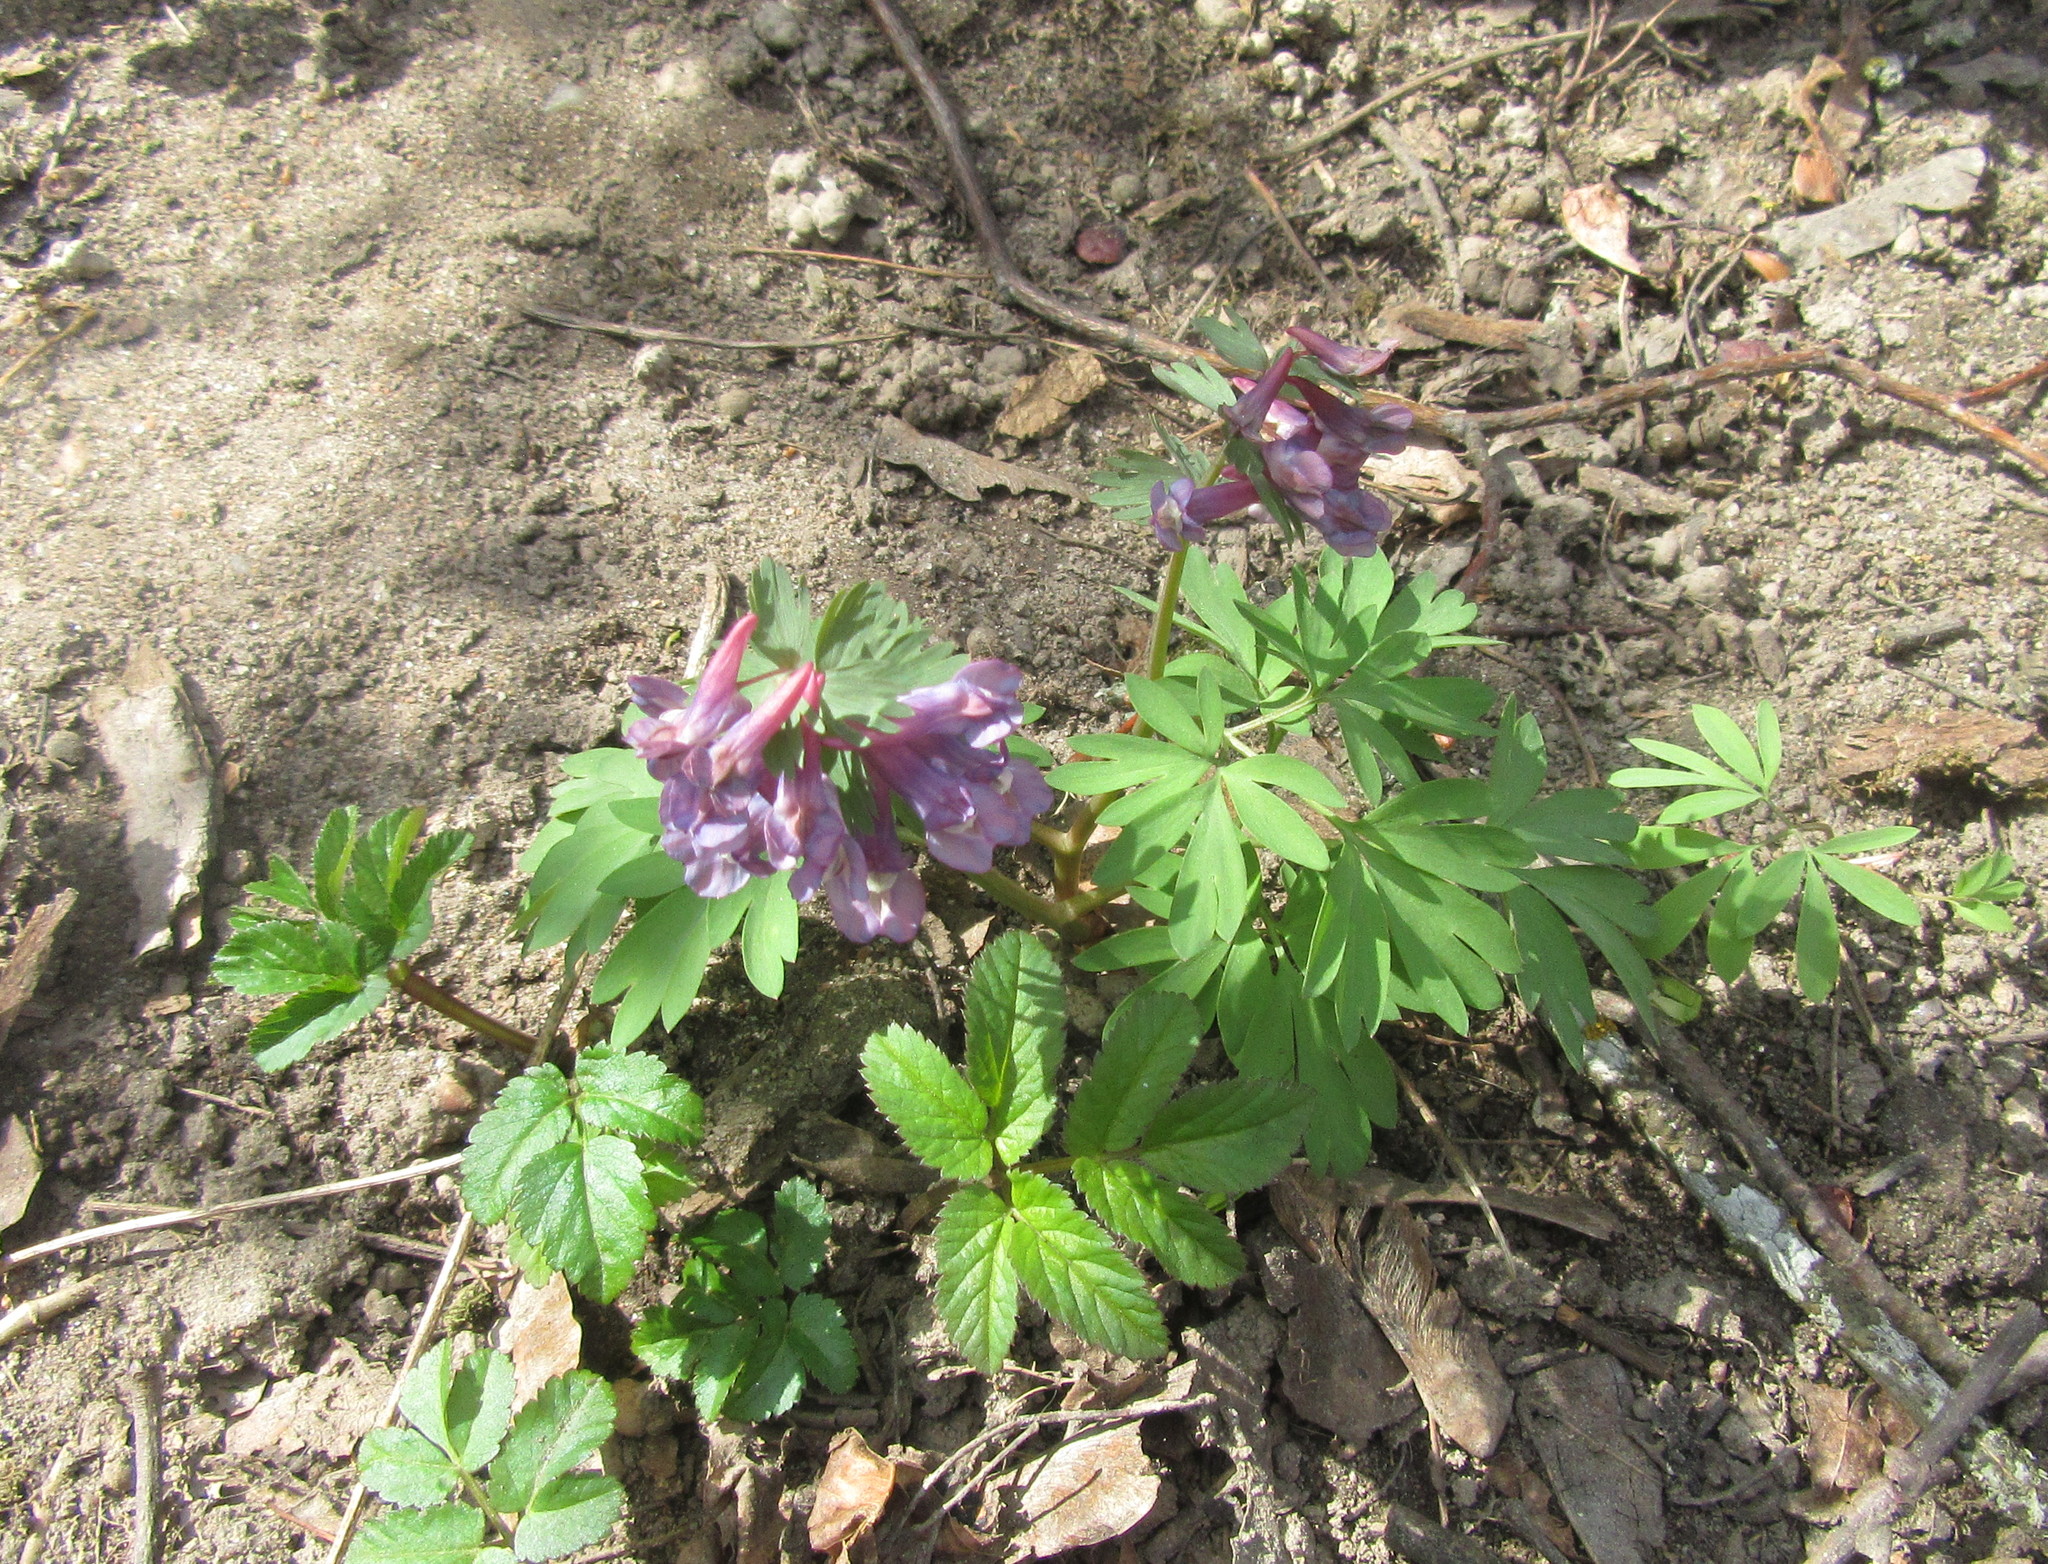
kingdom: Plantae
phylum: Tracheophyta
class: Magnoliopsida
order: Ranunculales
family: Papaveraceae
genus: Corydalis
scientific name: Corydalis solida
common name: Bird-in-a-bush
